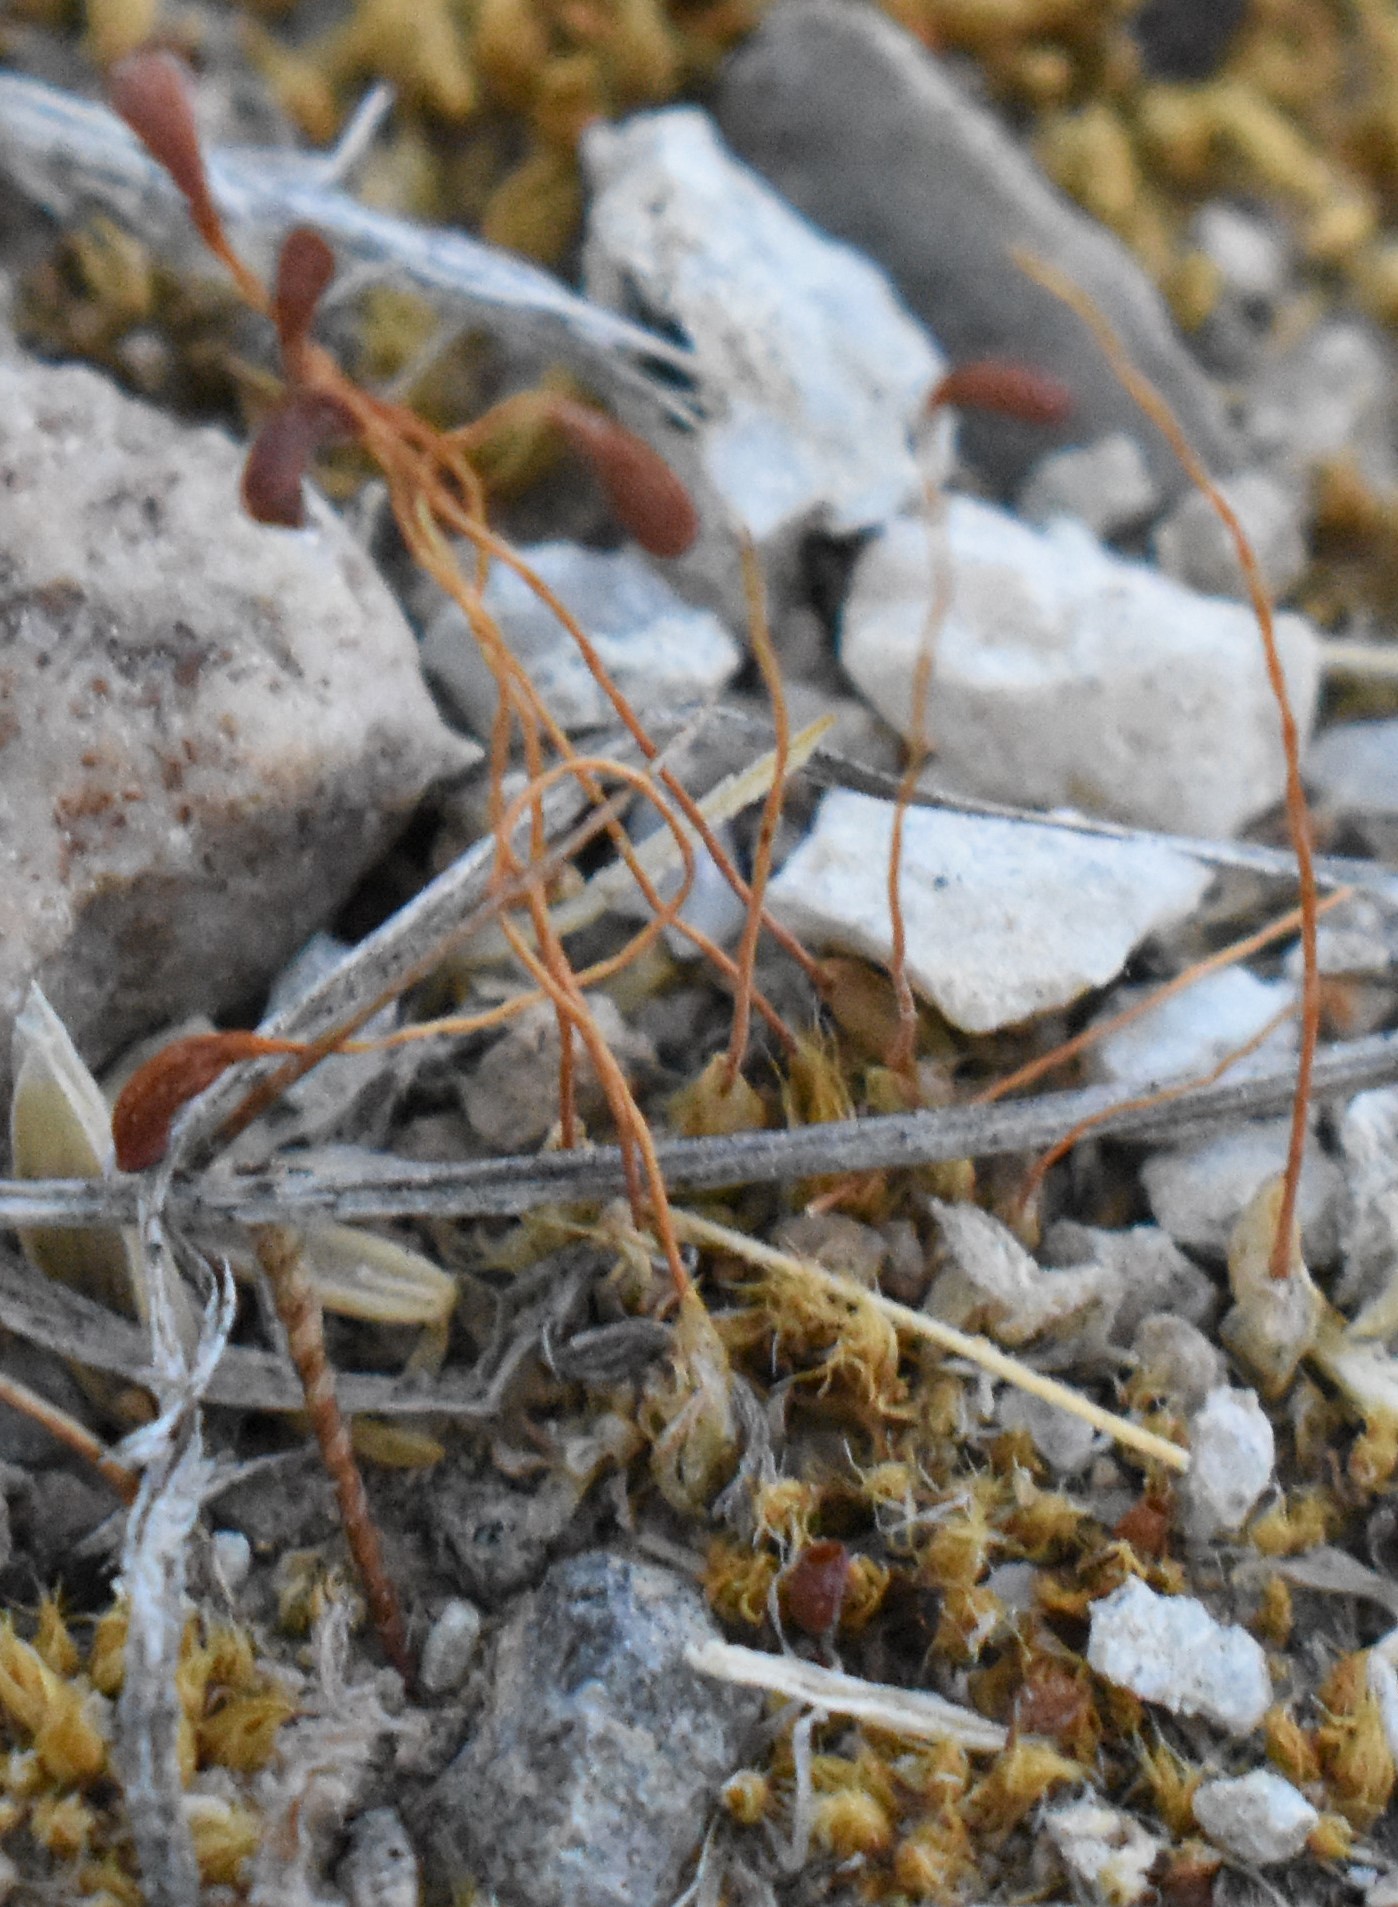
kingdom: Plantae
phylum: Bryophyta
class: Bryopsida
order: Funariales
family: Funariaceae
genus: Funaria
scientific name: Funaria hygrometrica
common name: Common cord moss
